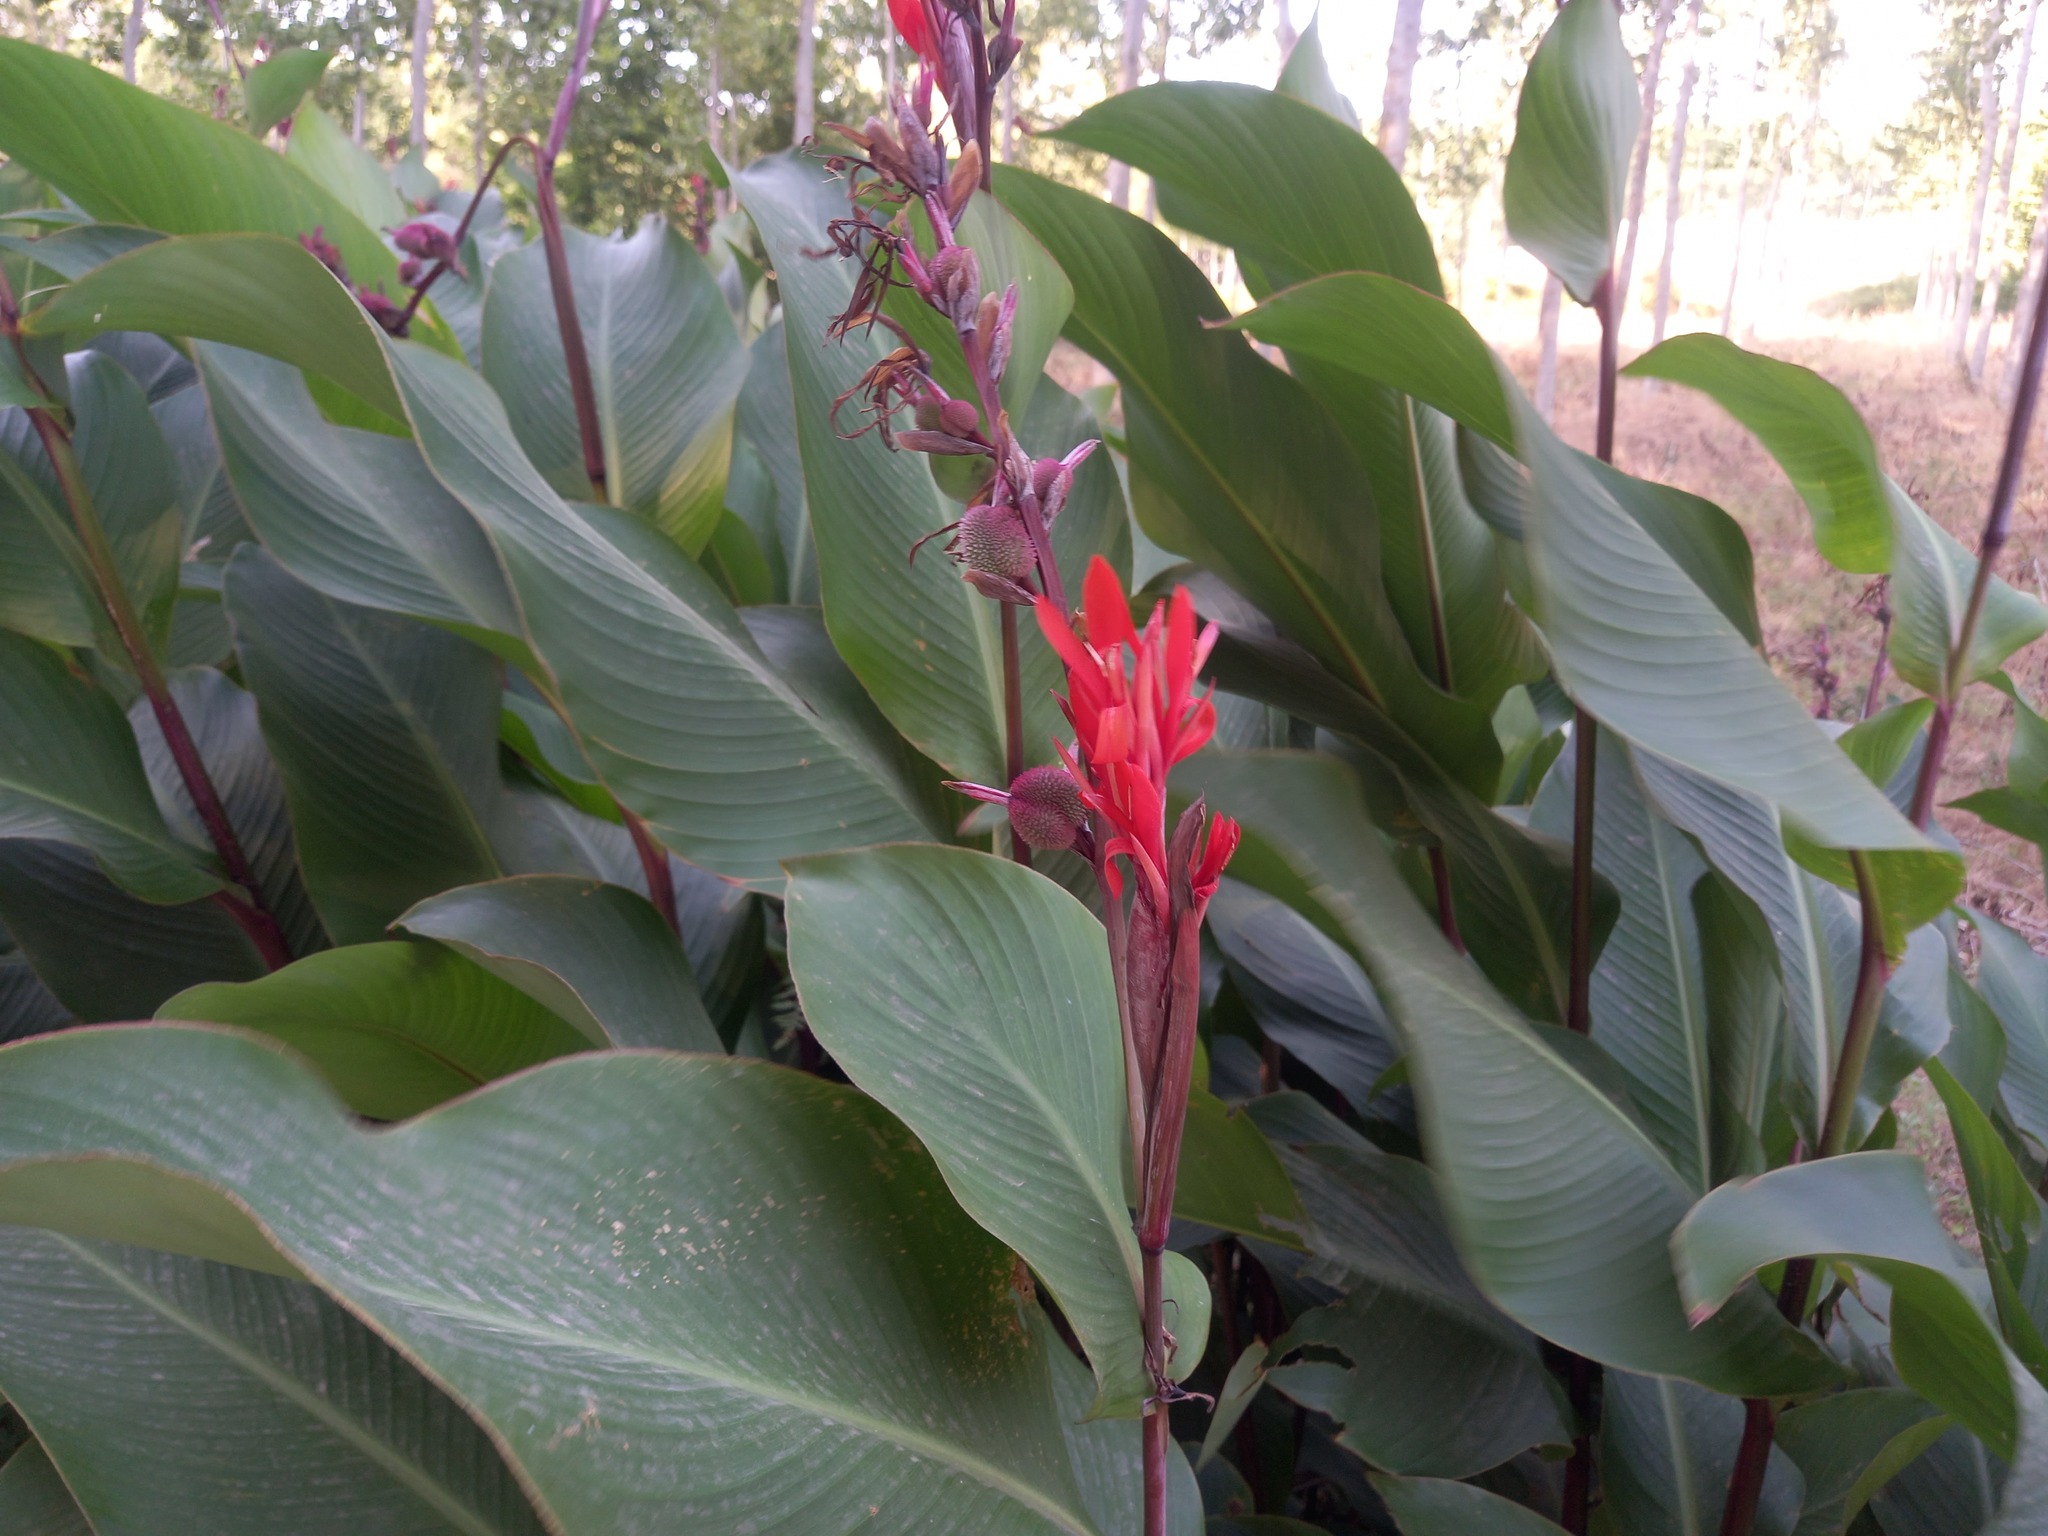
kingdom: Plantae
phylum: Tracheophyta
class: Liliopsida
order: Zingiberales
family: Cannaceae
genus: Canna
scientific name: Canna indica
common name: Indian shot
